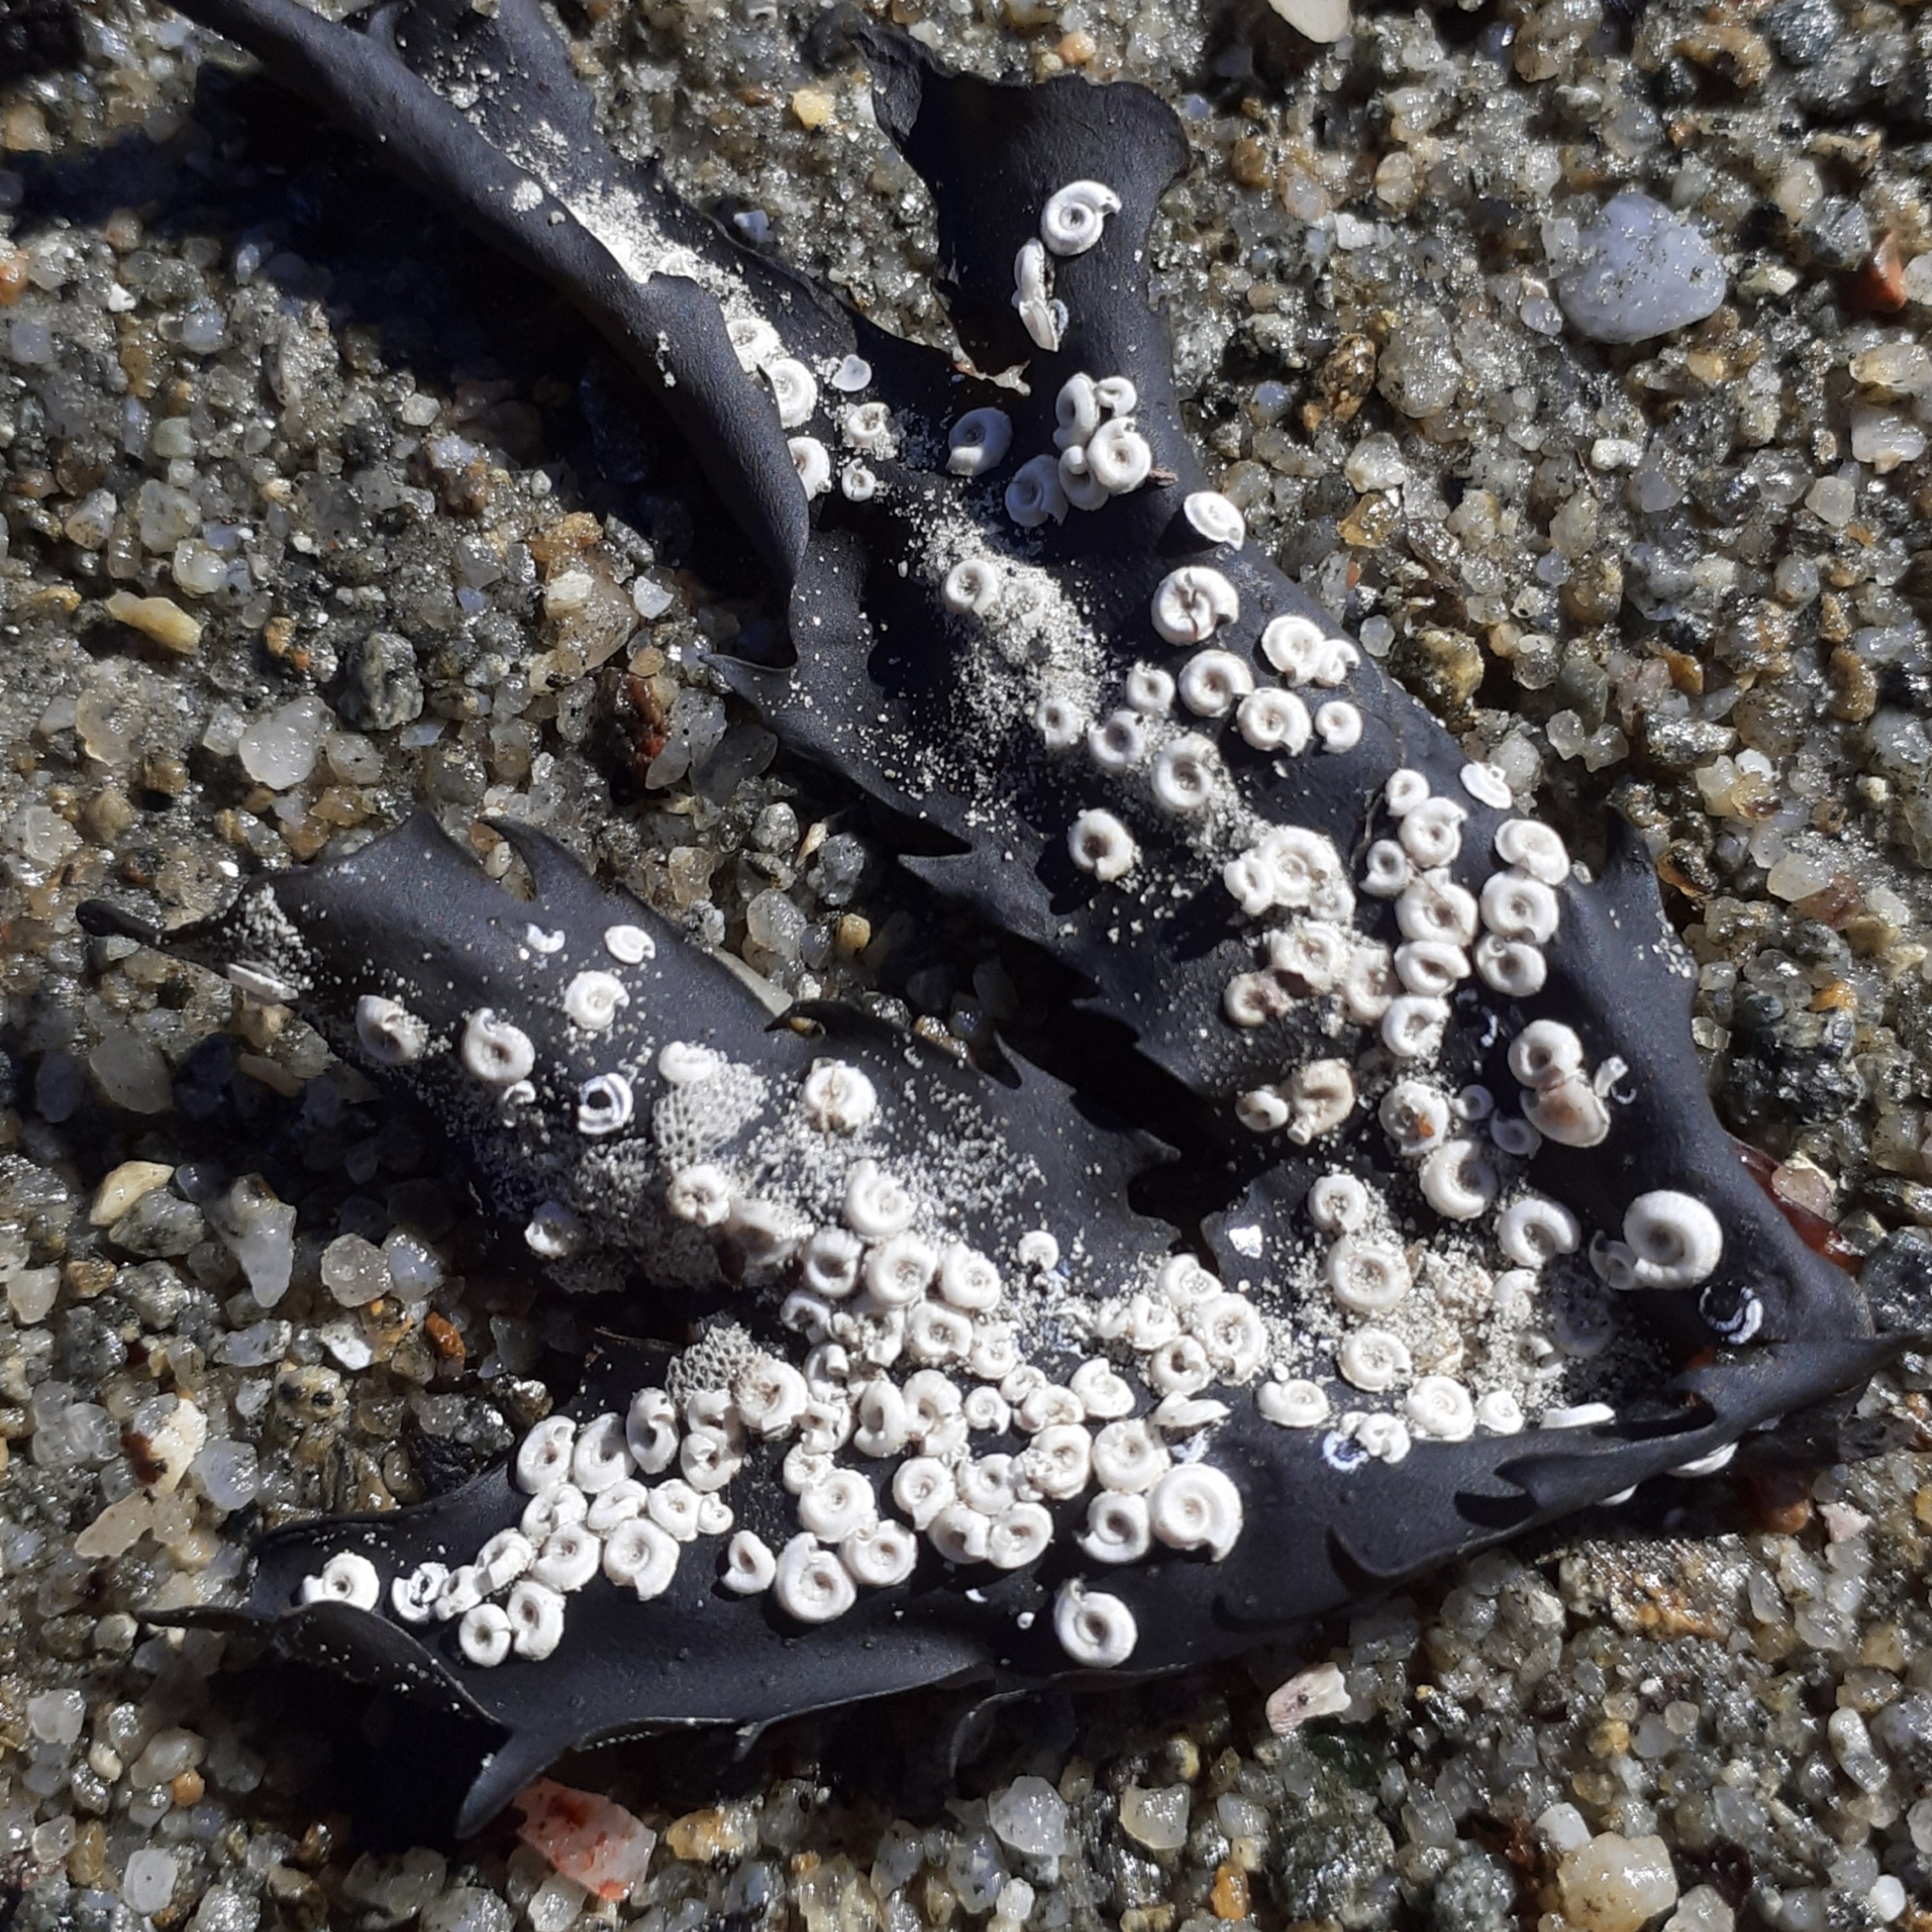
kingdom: Animalia
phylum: Annelida
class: Polychaeta
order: Sabellida
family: Serpulidae
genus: Spirorbis
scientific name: Spirorbis spirorbis
